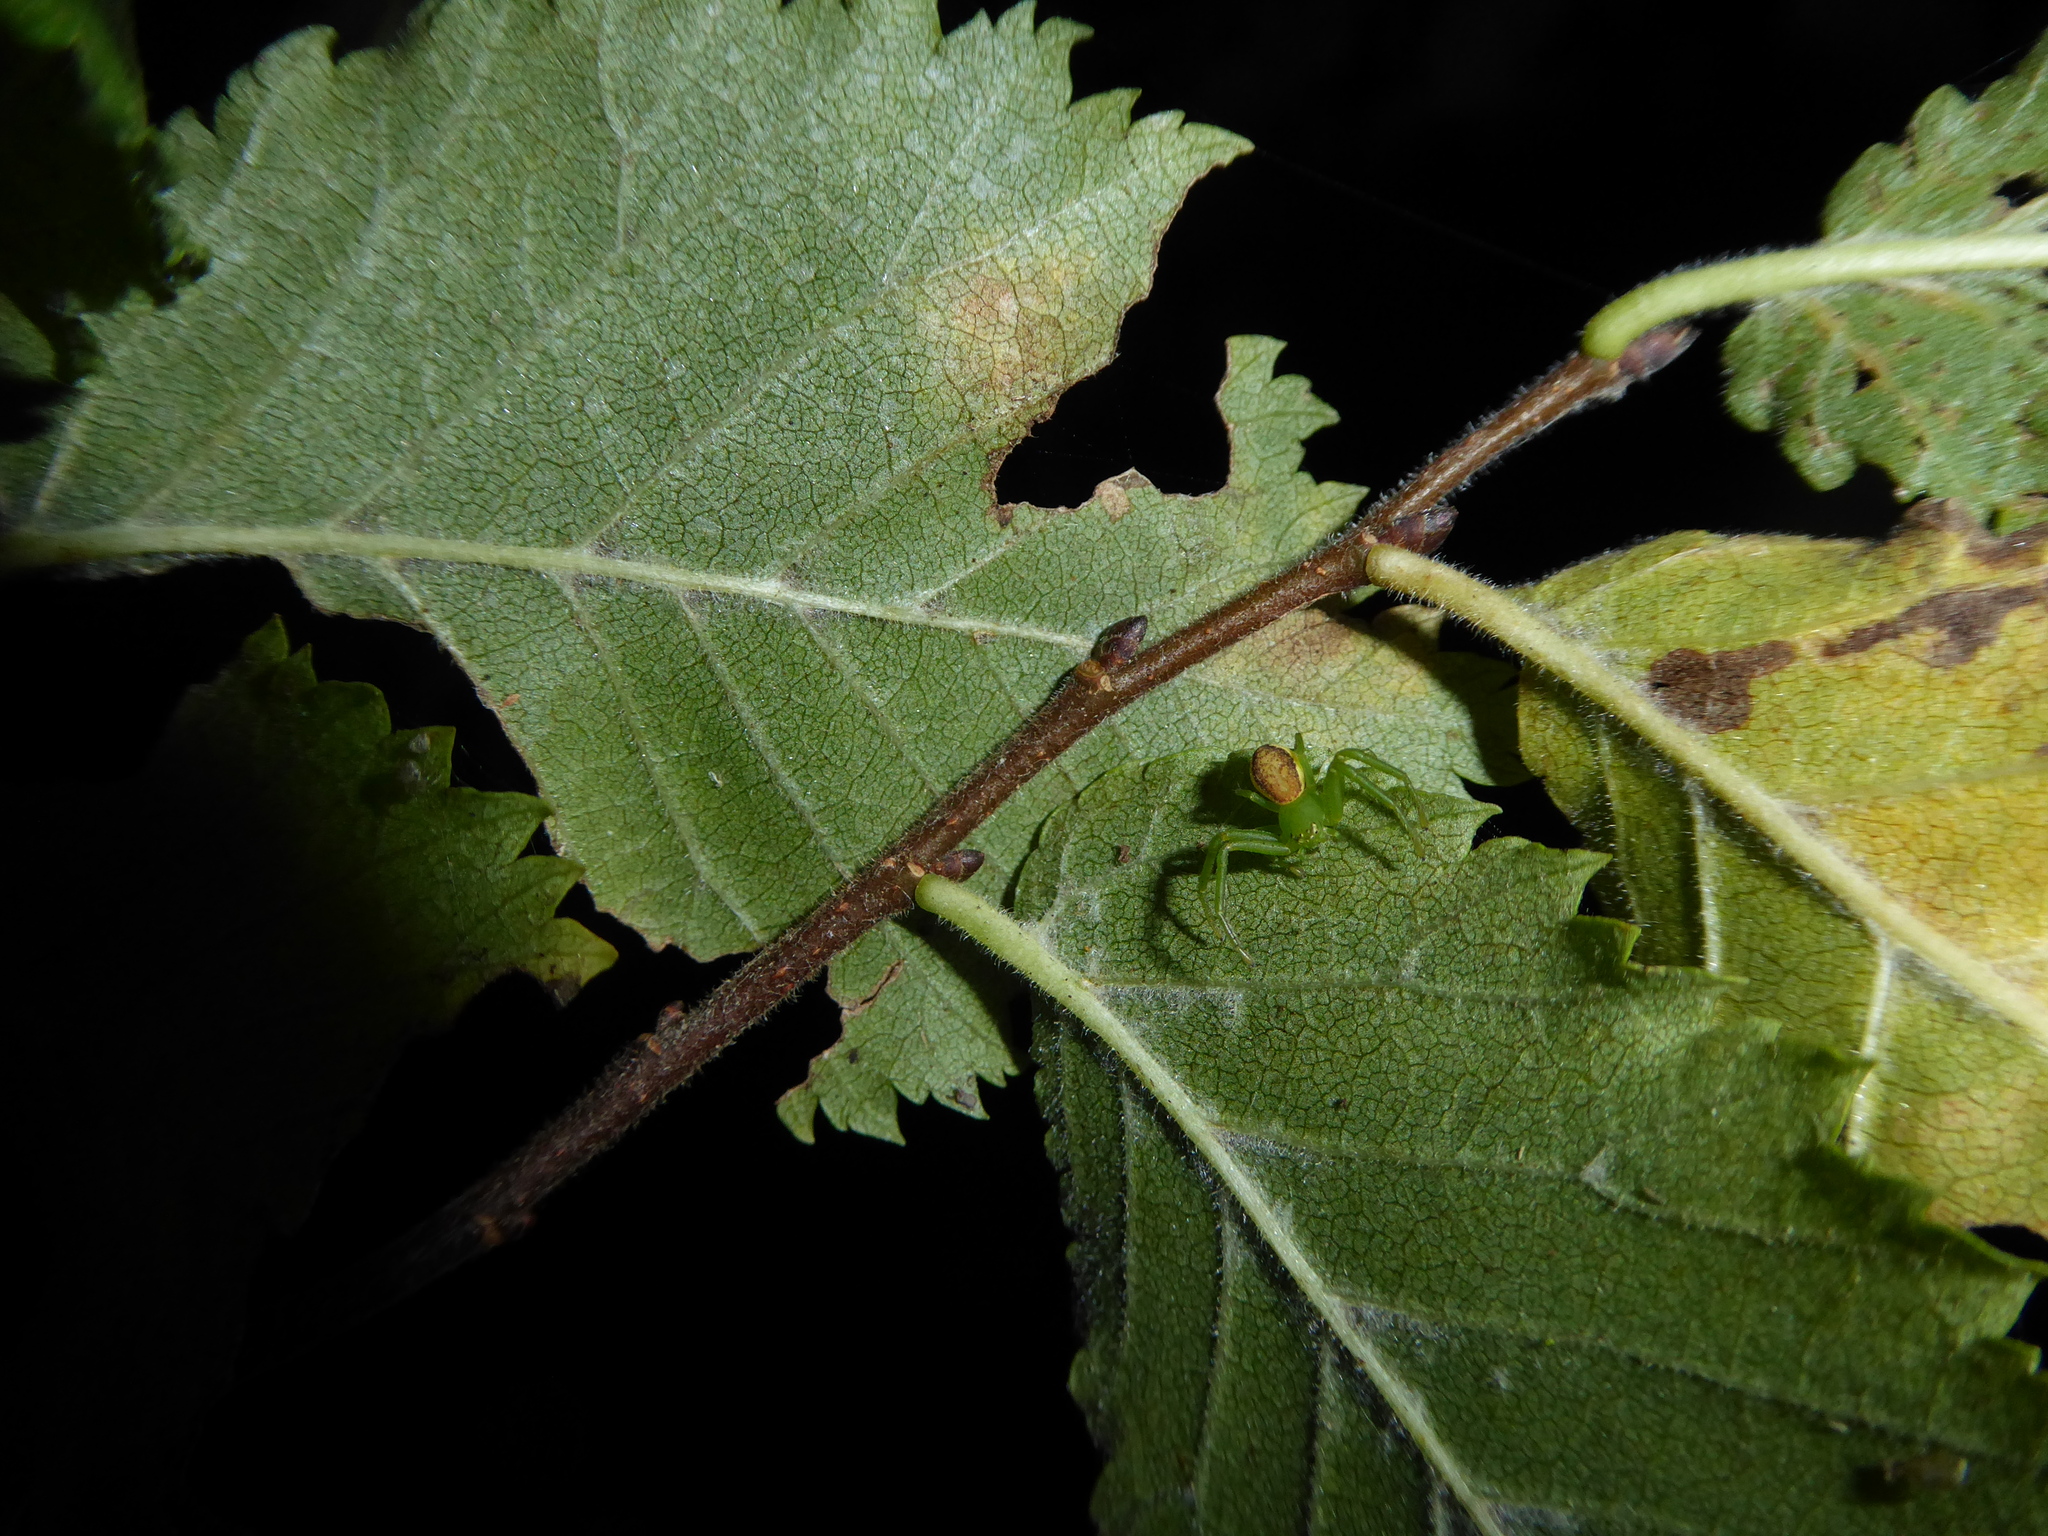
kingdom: Animalia
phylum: Arthropoda
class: Arachnida
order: Araneae
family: Thomisidae
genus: Diaea
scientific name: Diaea dorsata
